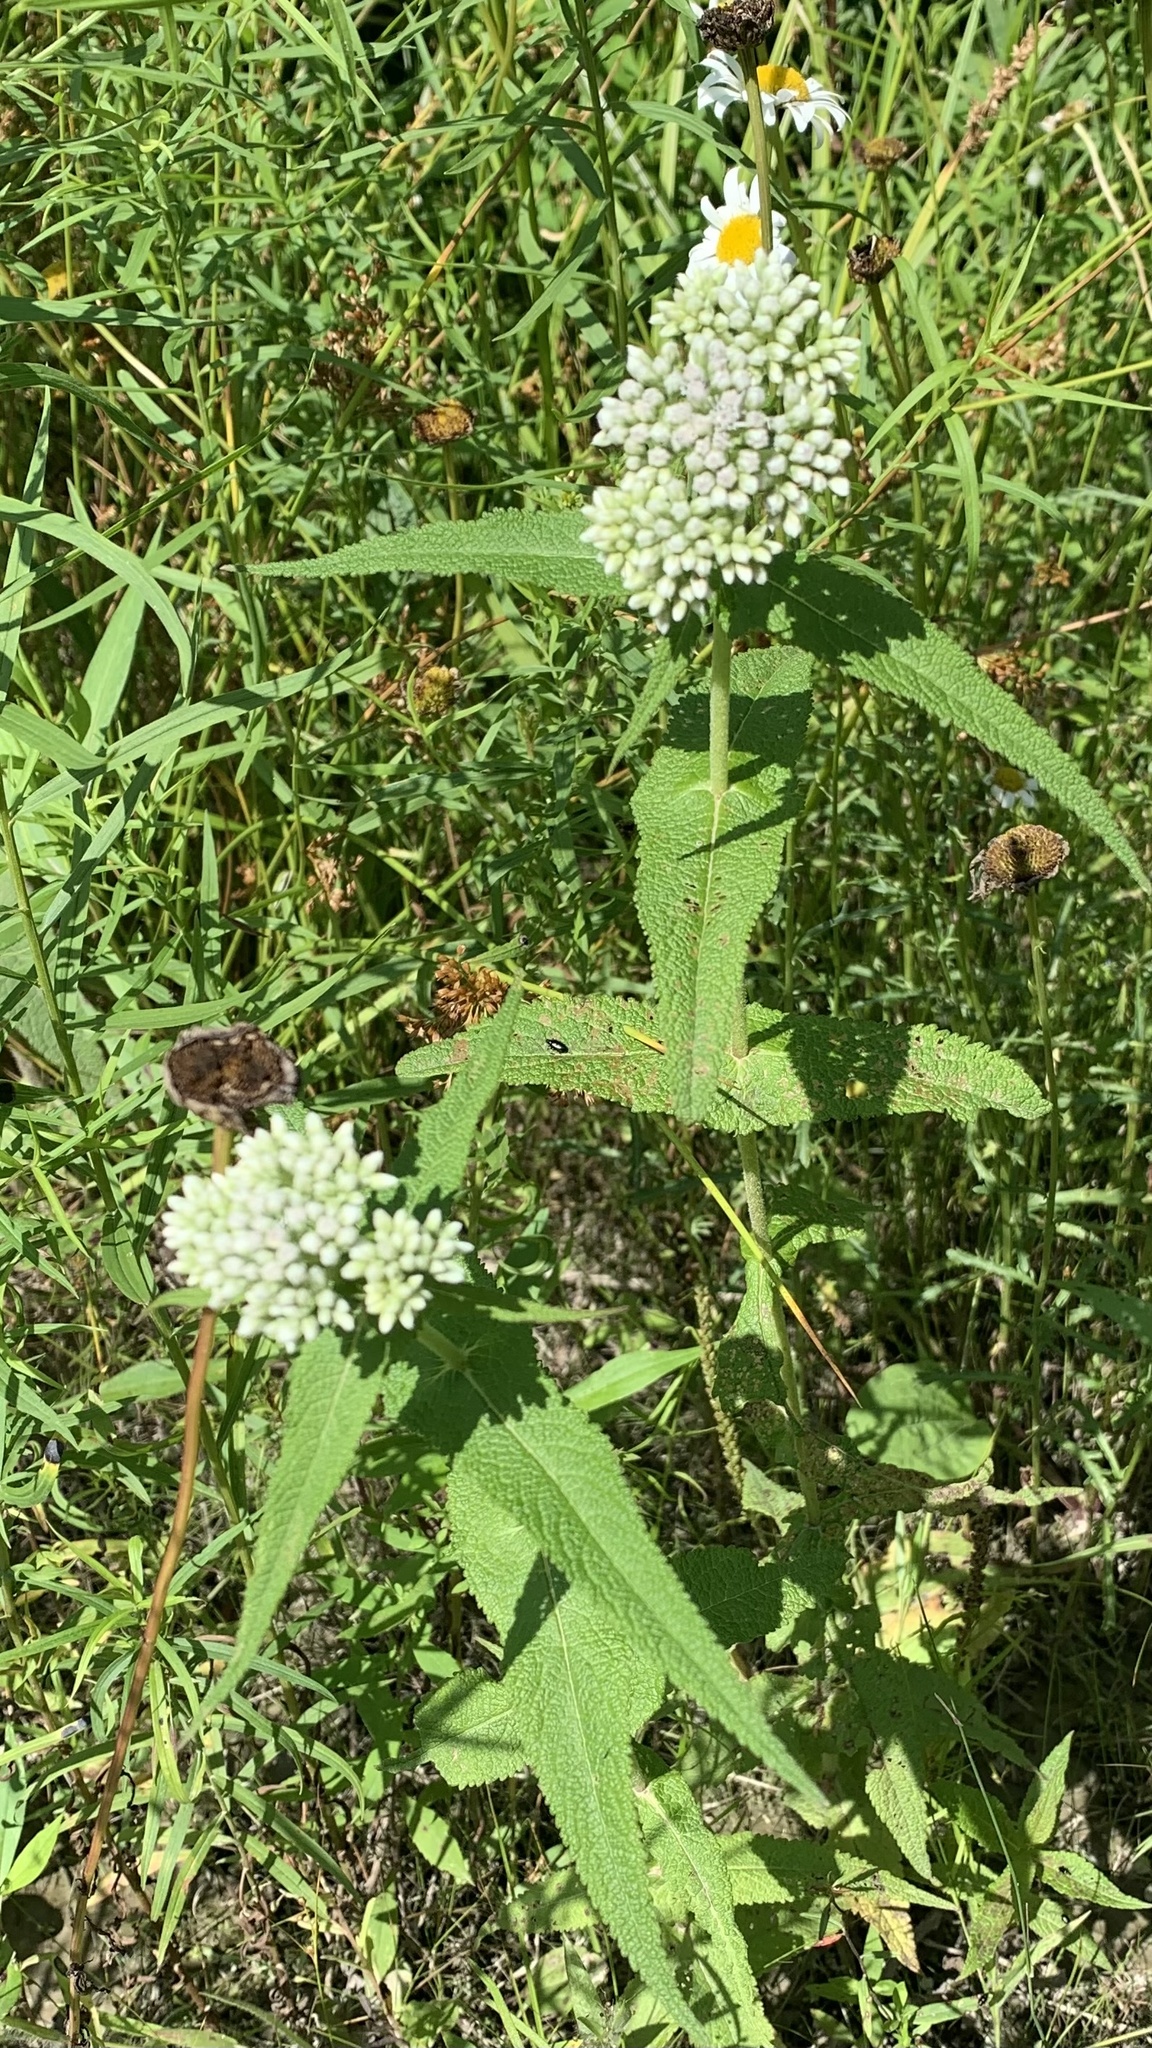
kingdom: Plantae
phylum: Tracheophyta
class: Magnoliopsida
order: Asterales
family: Asteraceae
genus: Eupatorium
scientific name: Eupatorium perfoliatum
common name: Boneset
